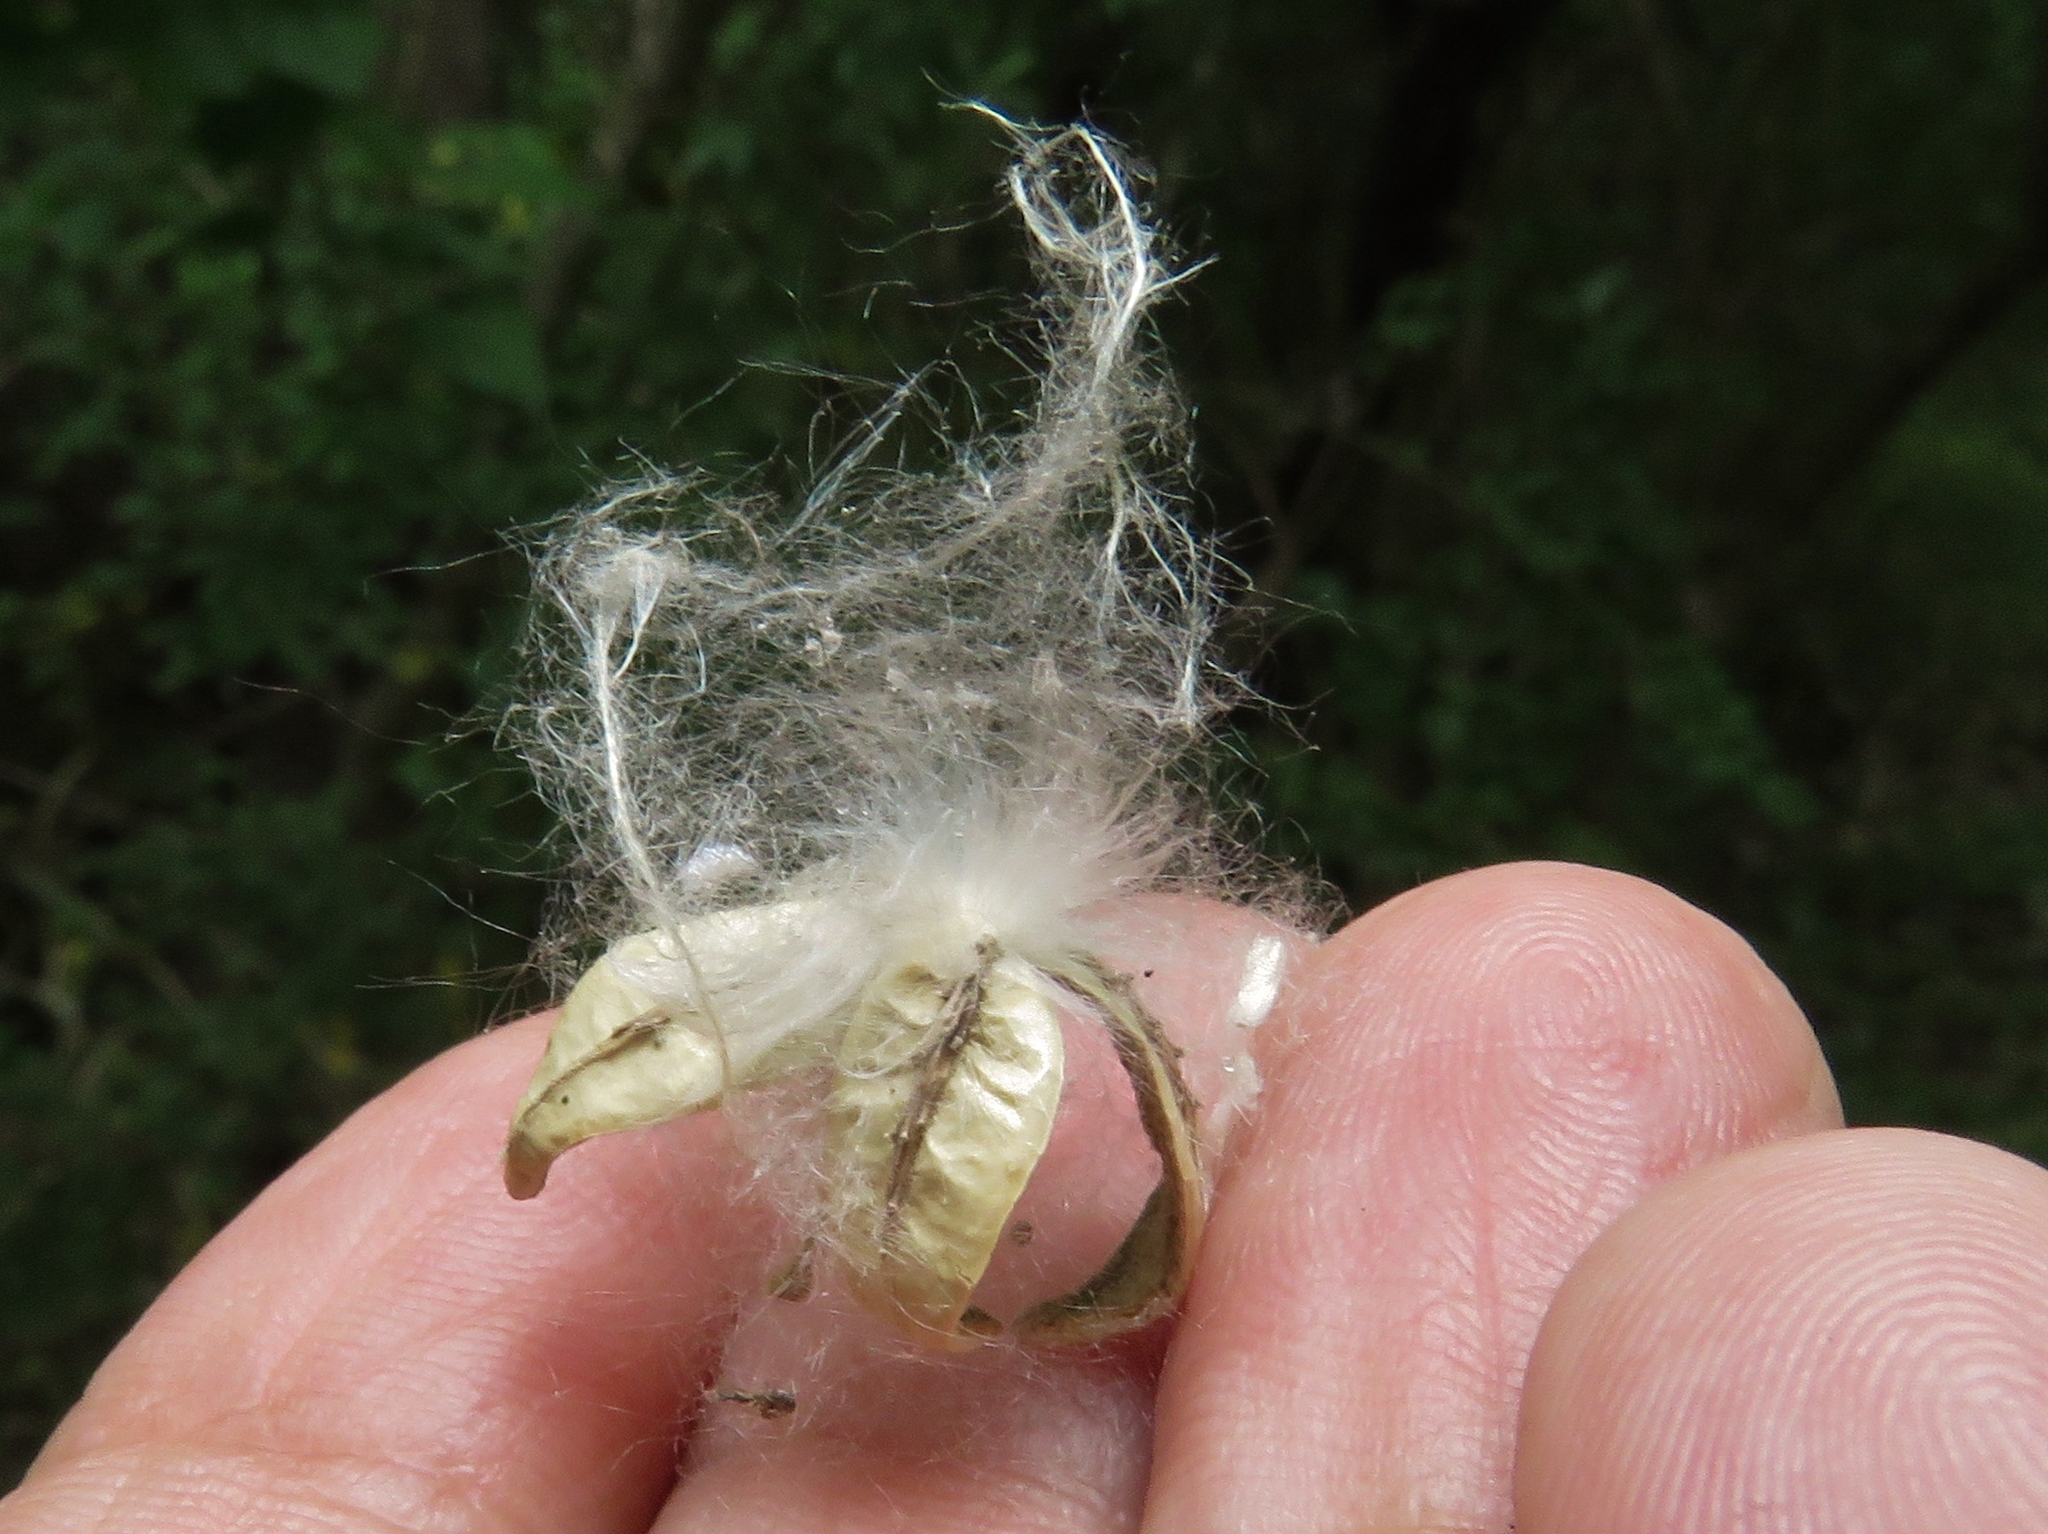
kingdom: Plantae
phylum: Tracheophyta
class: Magnoliopsida
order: Malpighiales
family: Salicaceae
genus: Populus
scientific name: Populus deltoides
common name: Eastern cottonwood
